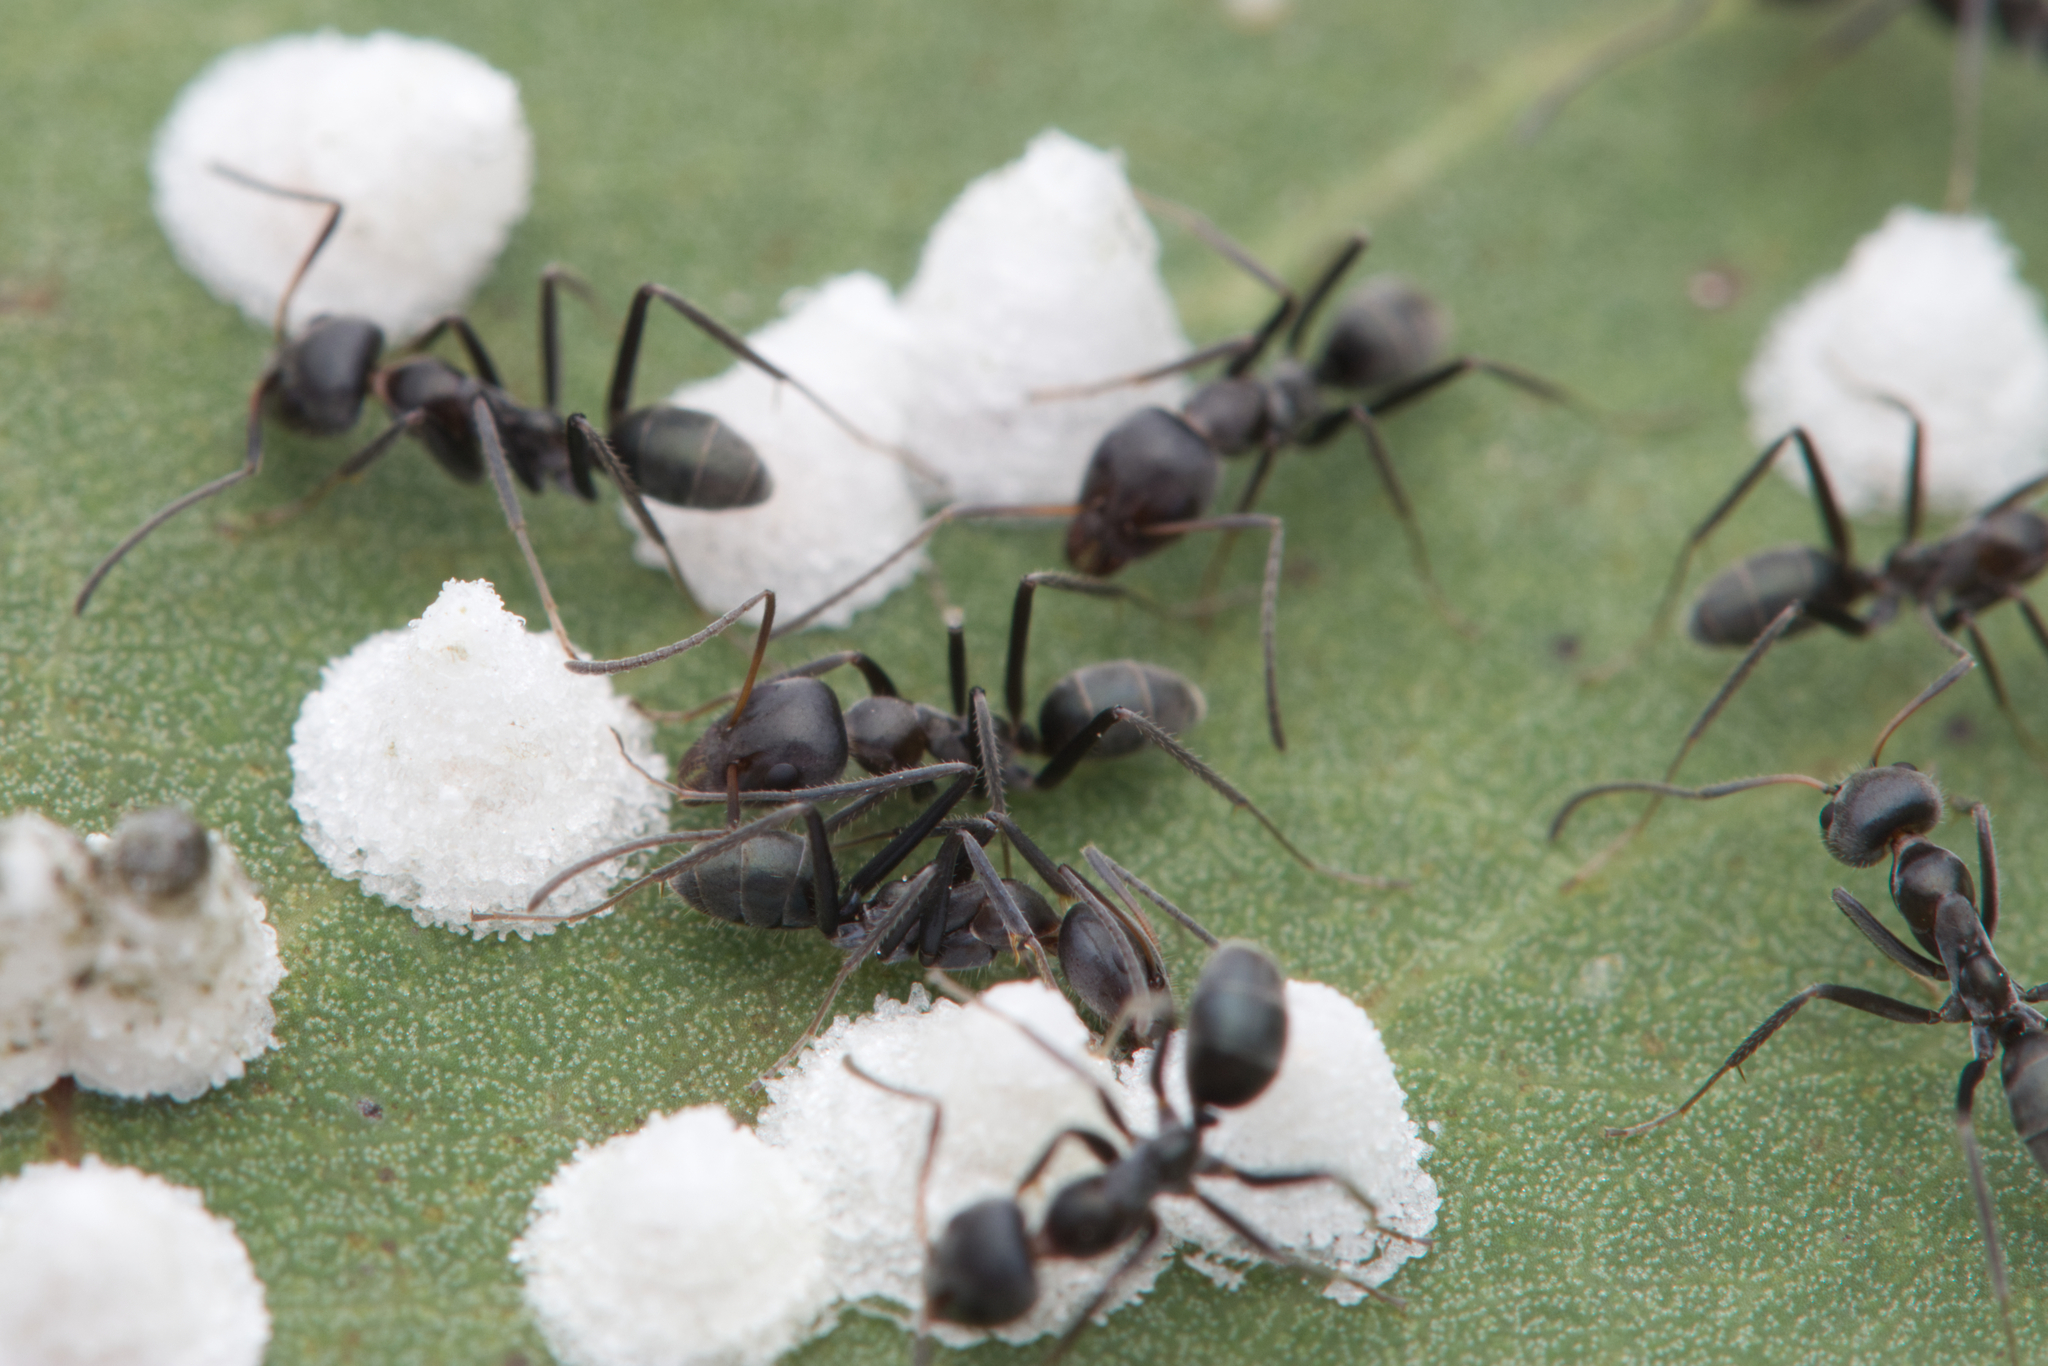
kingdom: Animalia
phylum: Arthropoda
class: Insecta
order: Hymenoptera
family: Formicidae
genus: Iridomyrmex
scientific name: Iridomyrmex
